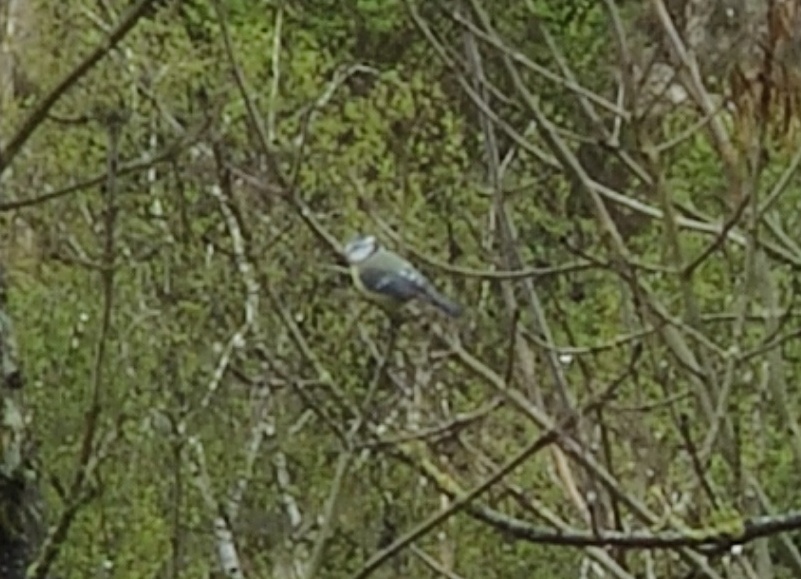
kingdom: Animalia
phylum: Chordata
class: Aves
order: Passeriformes
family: Paridae
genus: Cyanistes
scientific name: Cyanistes caeruleus
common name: Eurasian blue tit
